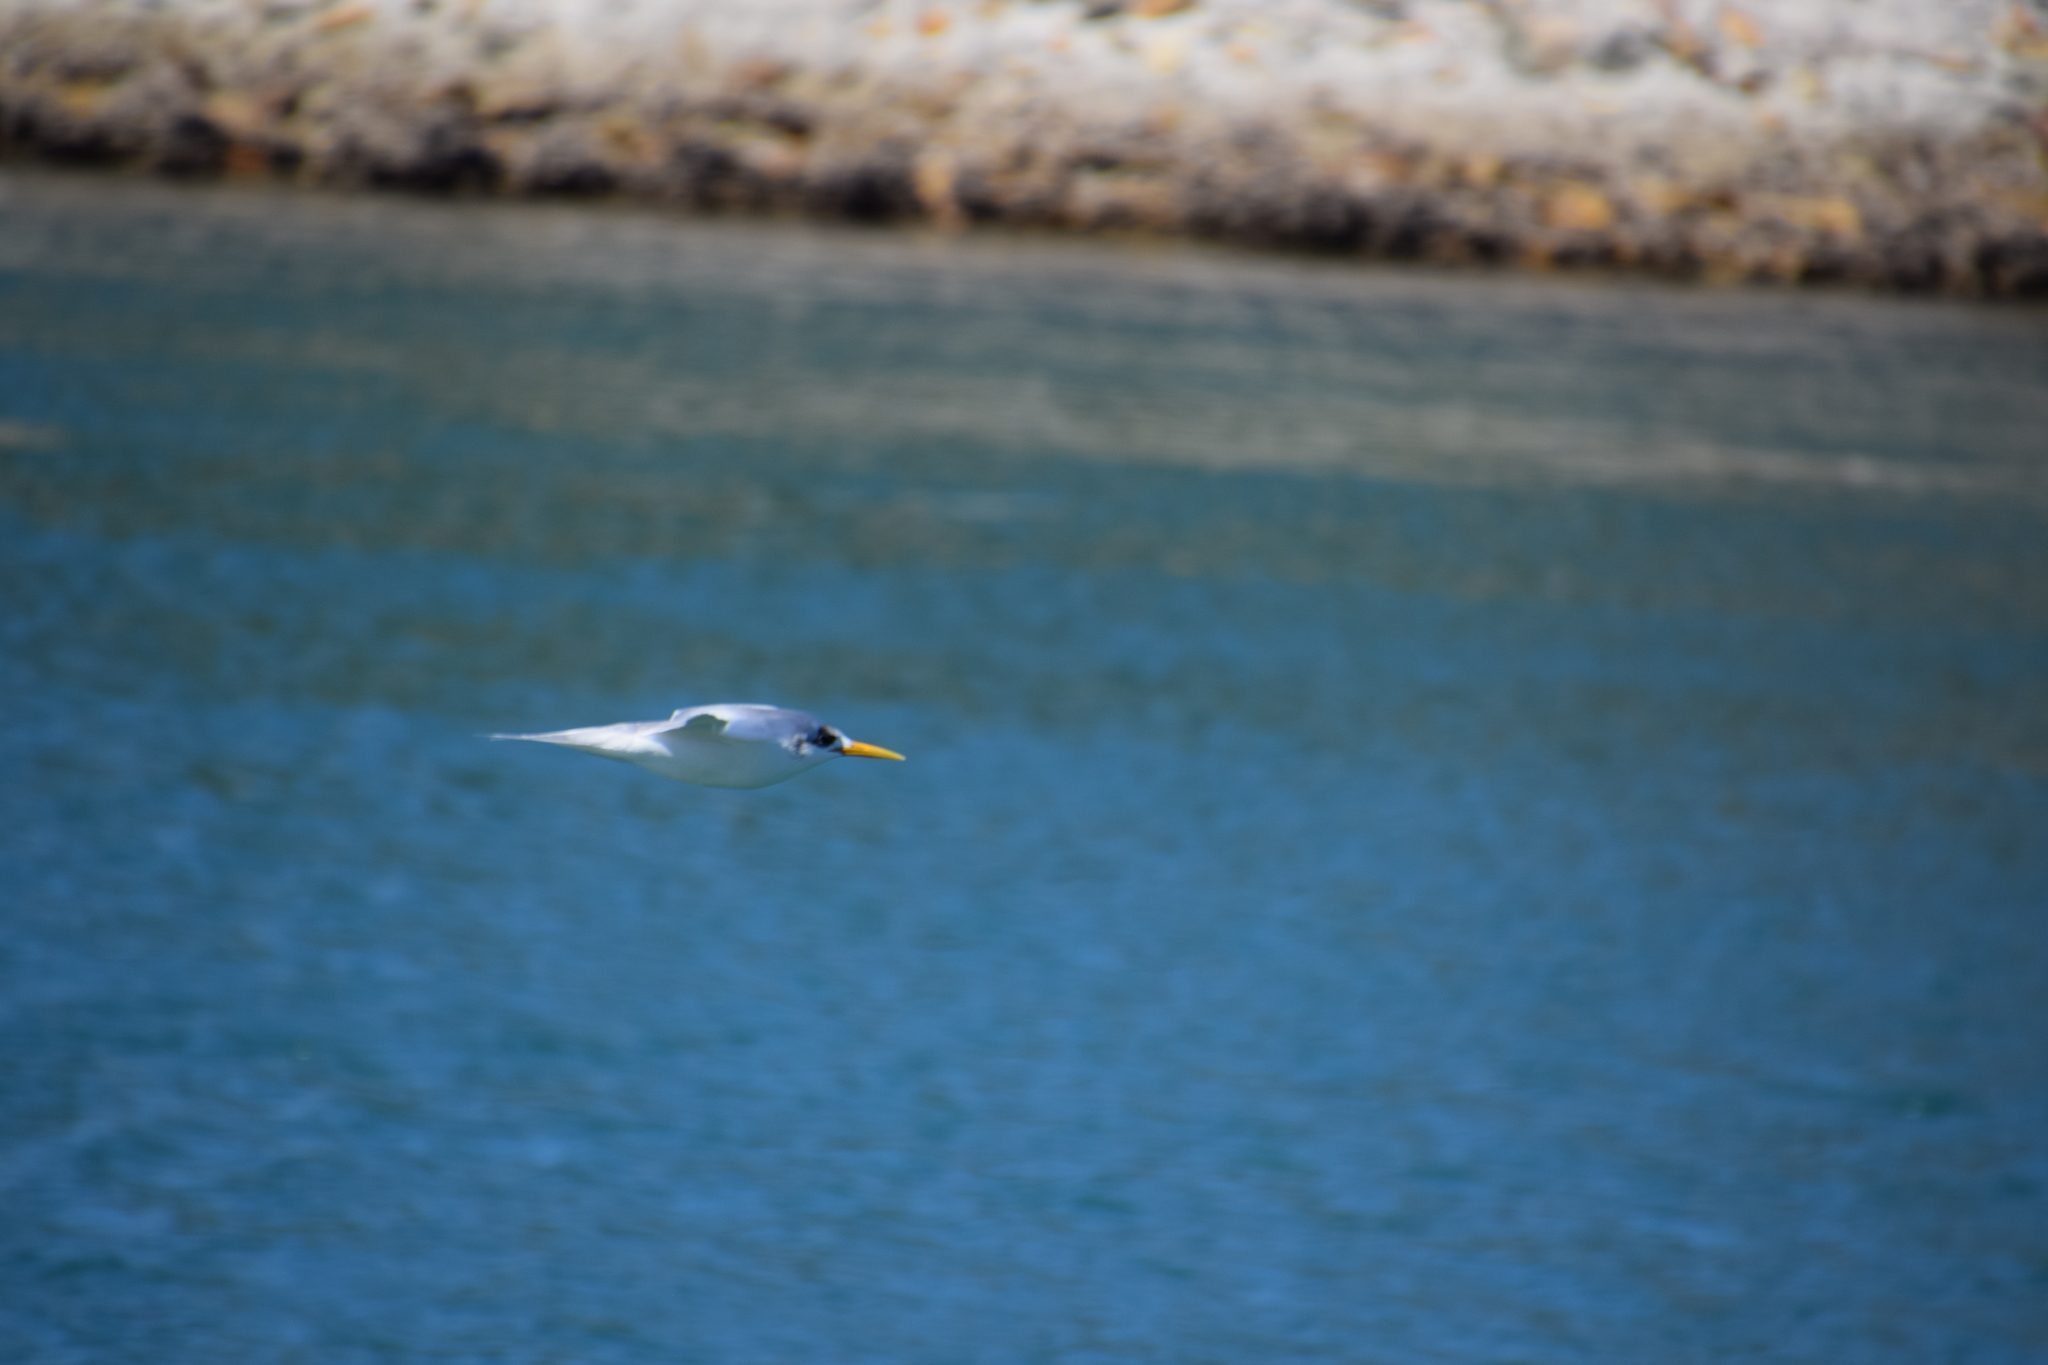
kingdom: Animalia
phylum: Chordata
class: Aves
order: Charadriiformes
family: Laridae
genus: Thalasseus
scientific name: Thalasseus bergii
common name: Greater crested tern
